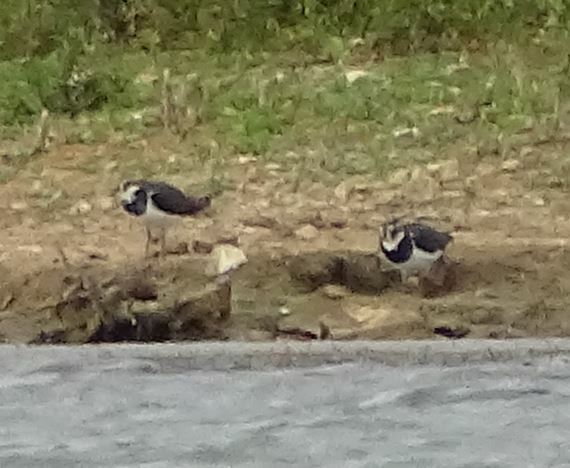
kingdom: Animalia
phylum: Chordata
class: Aves
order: Charadriiformes
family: Charadriidae
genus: Vanellus
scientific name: Vanellus vanellus
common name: Northern lapwing
